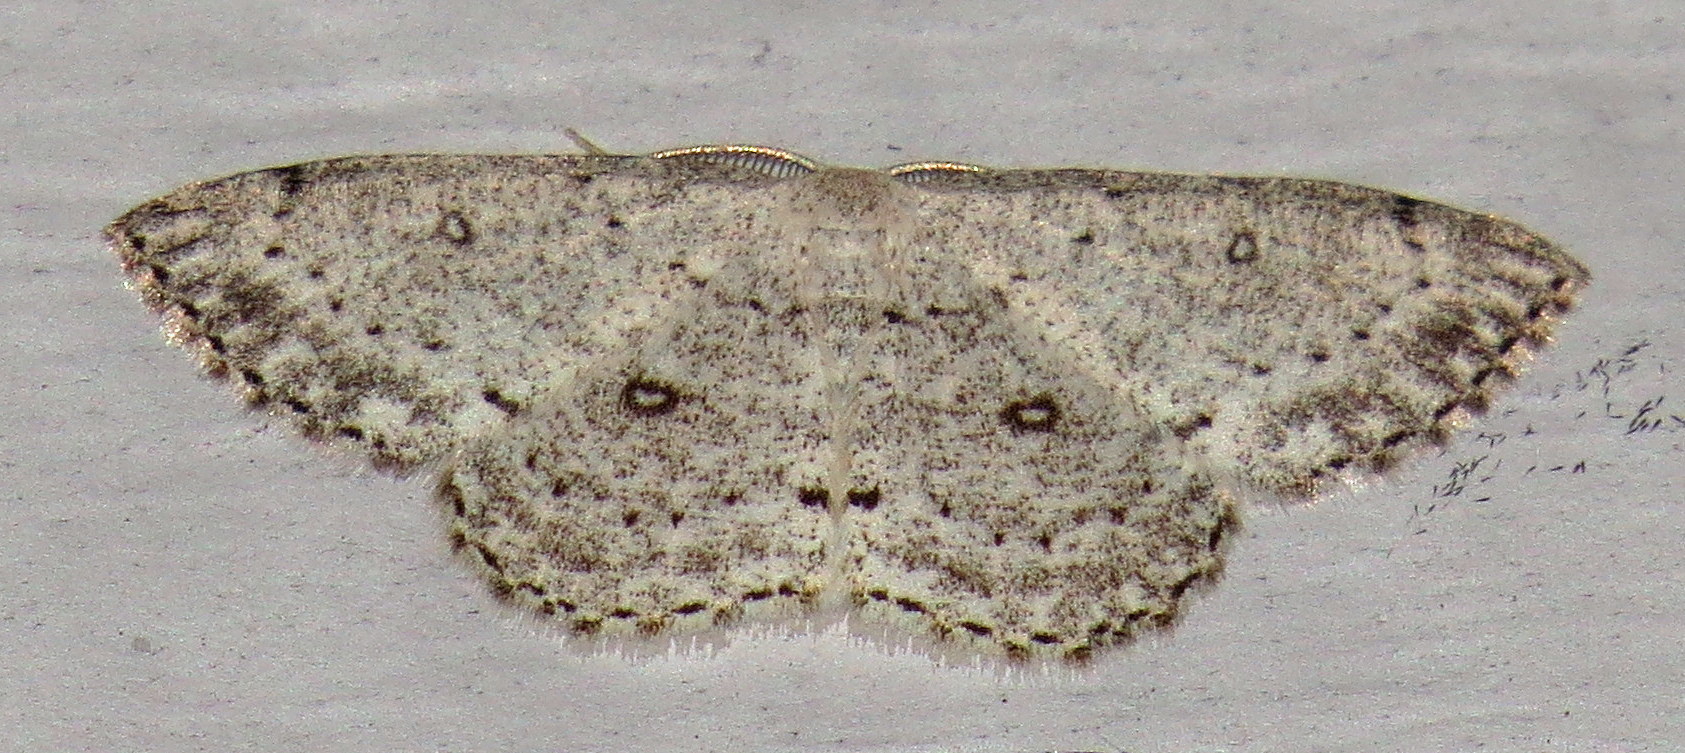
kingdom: Animalia
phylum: Arthropoda
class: Insecta
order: Lepidoptera
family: Geometridae
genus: Cyclophora
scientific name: Cyclophora pendulinaria
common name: Sweet fern geometer
